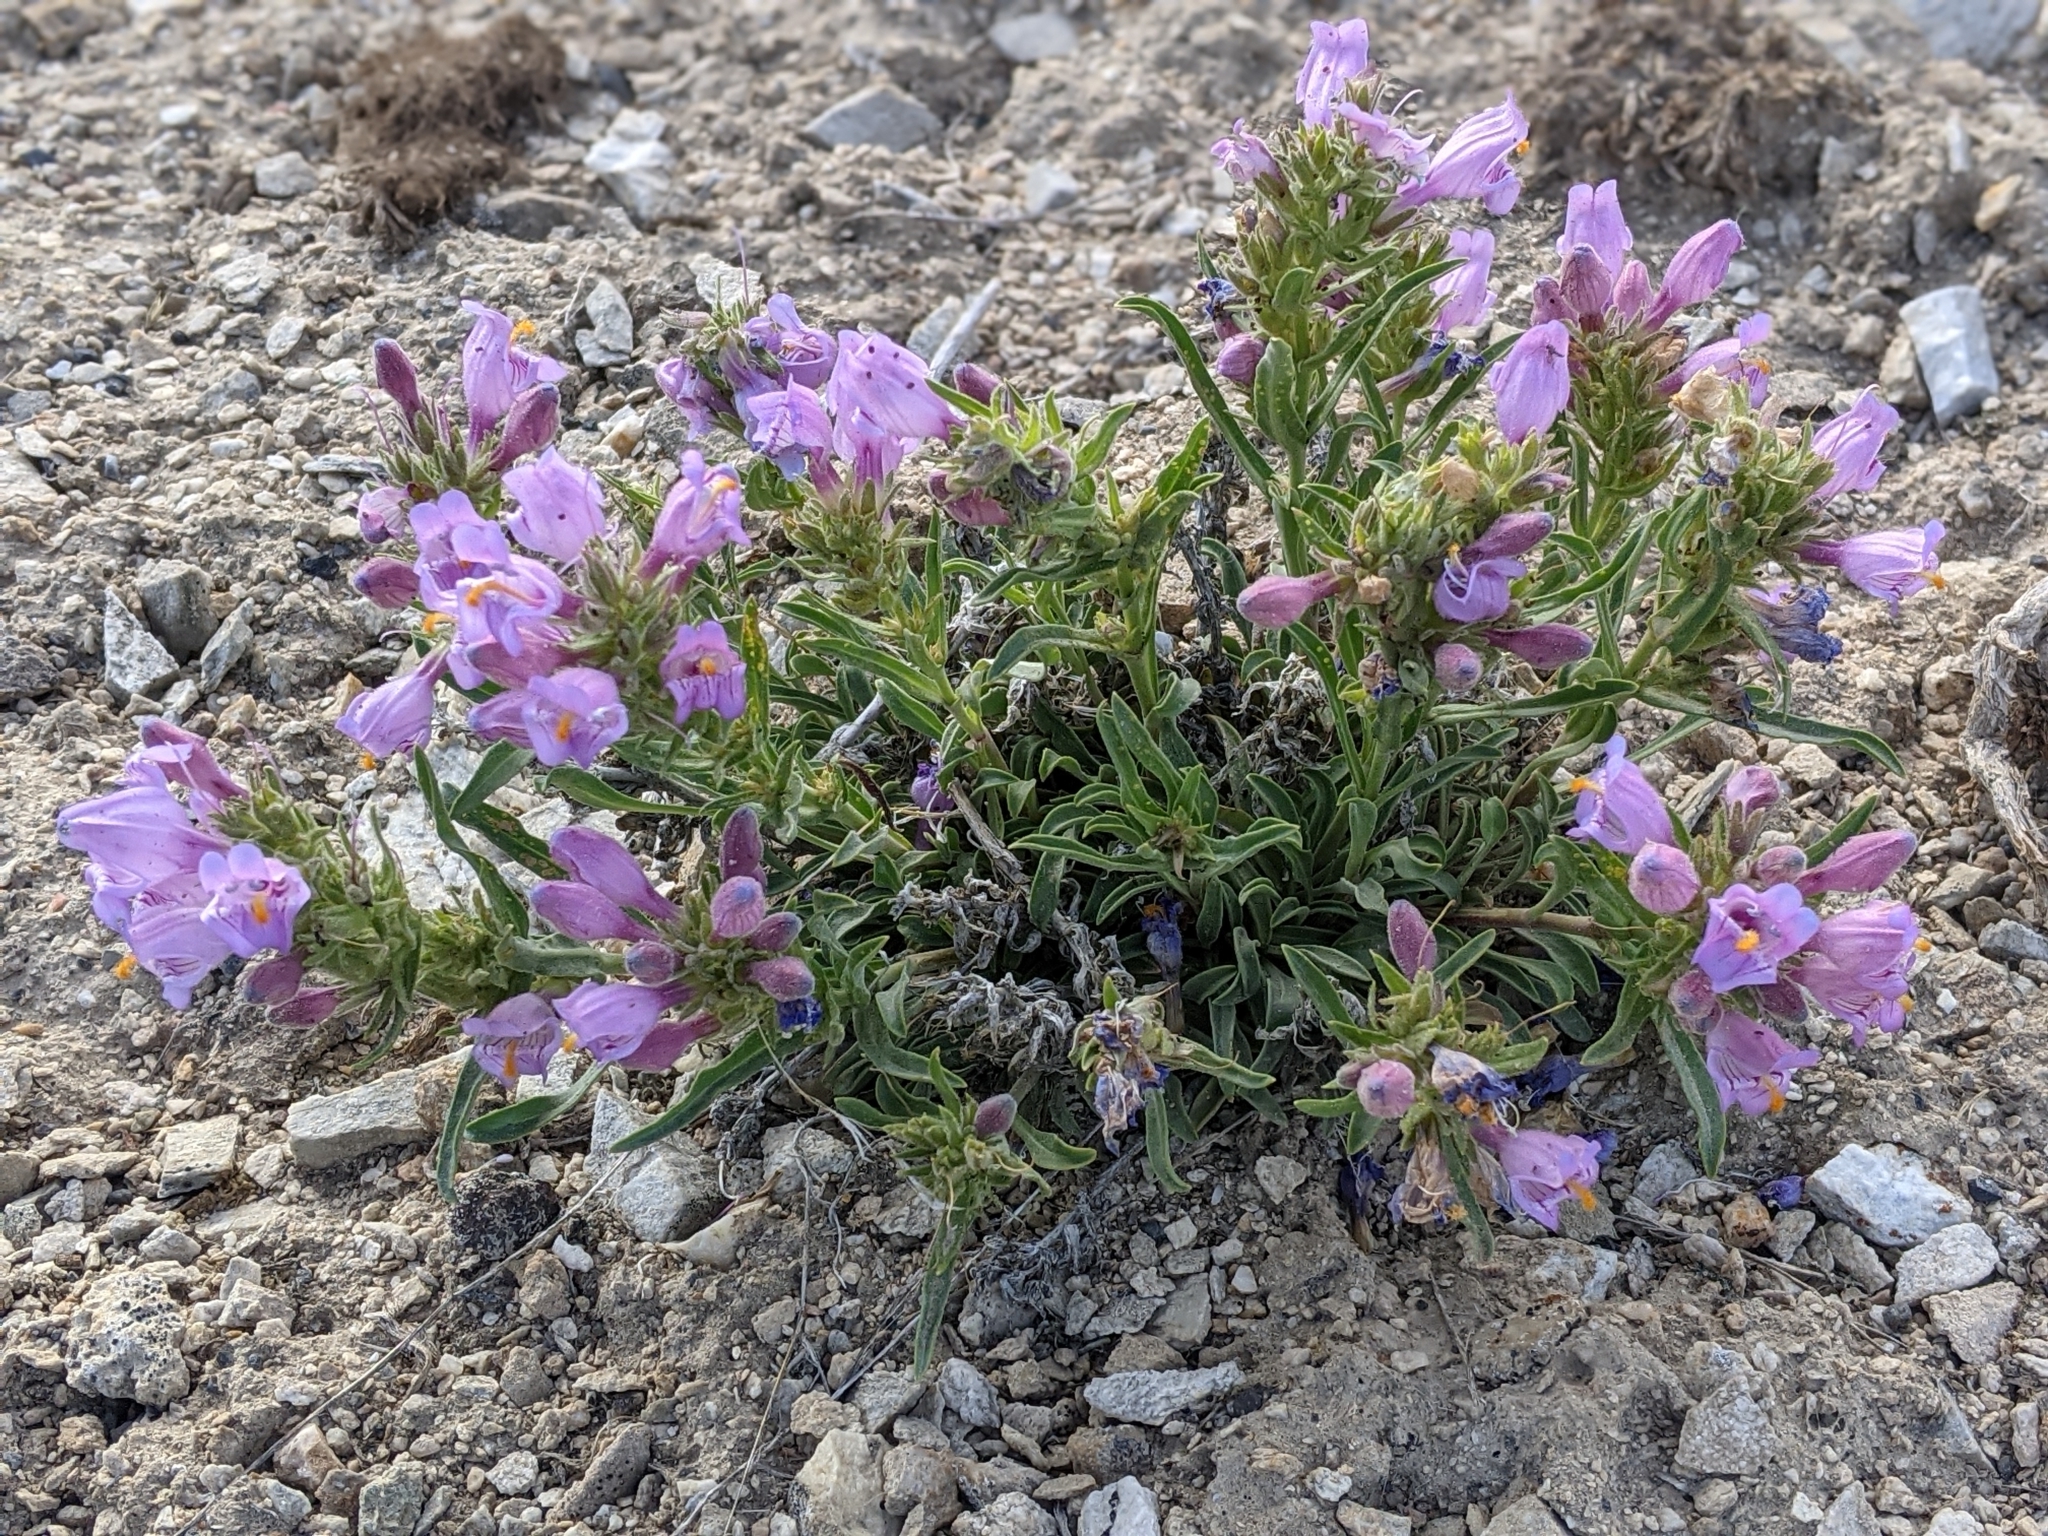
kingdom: Plantae
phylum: Tracheophyta
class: Magnoliopsida
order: Lamiales
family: Plantaginaceae
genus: Penstemon
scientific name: Penstemon janishiae
